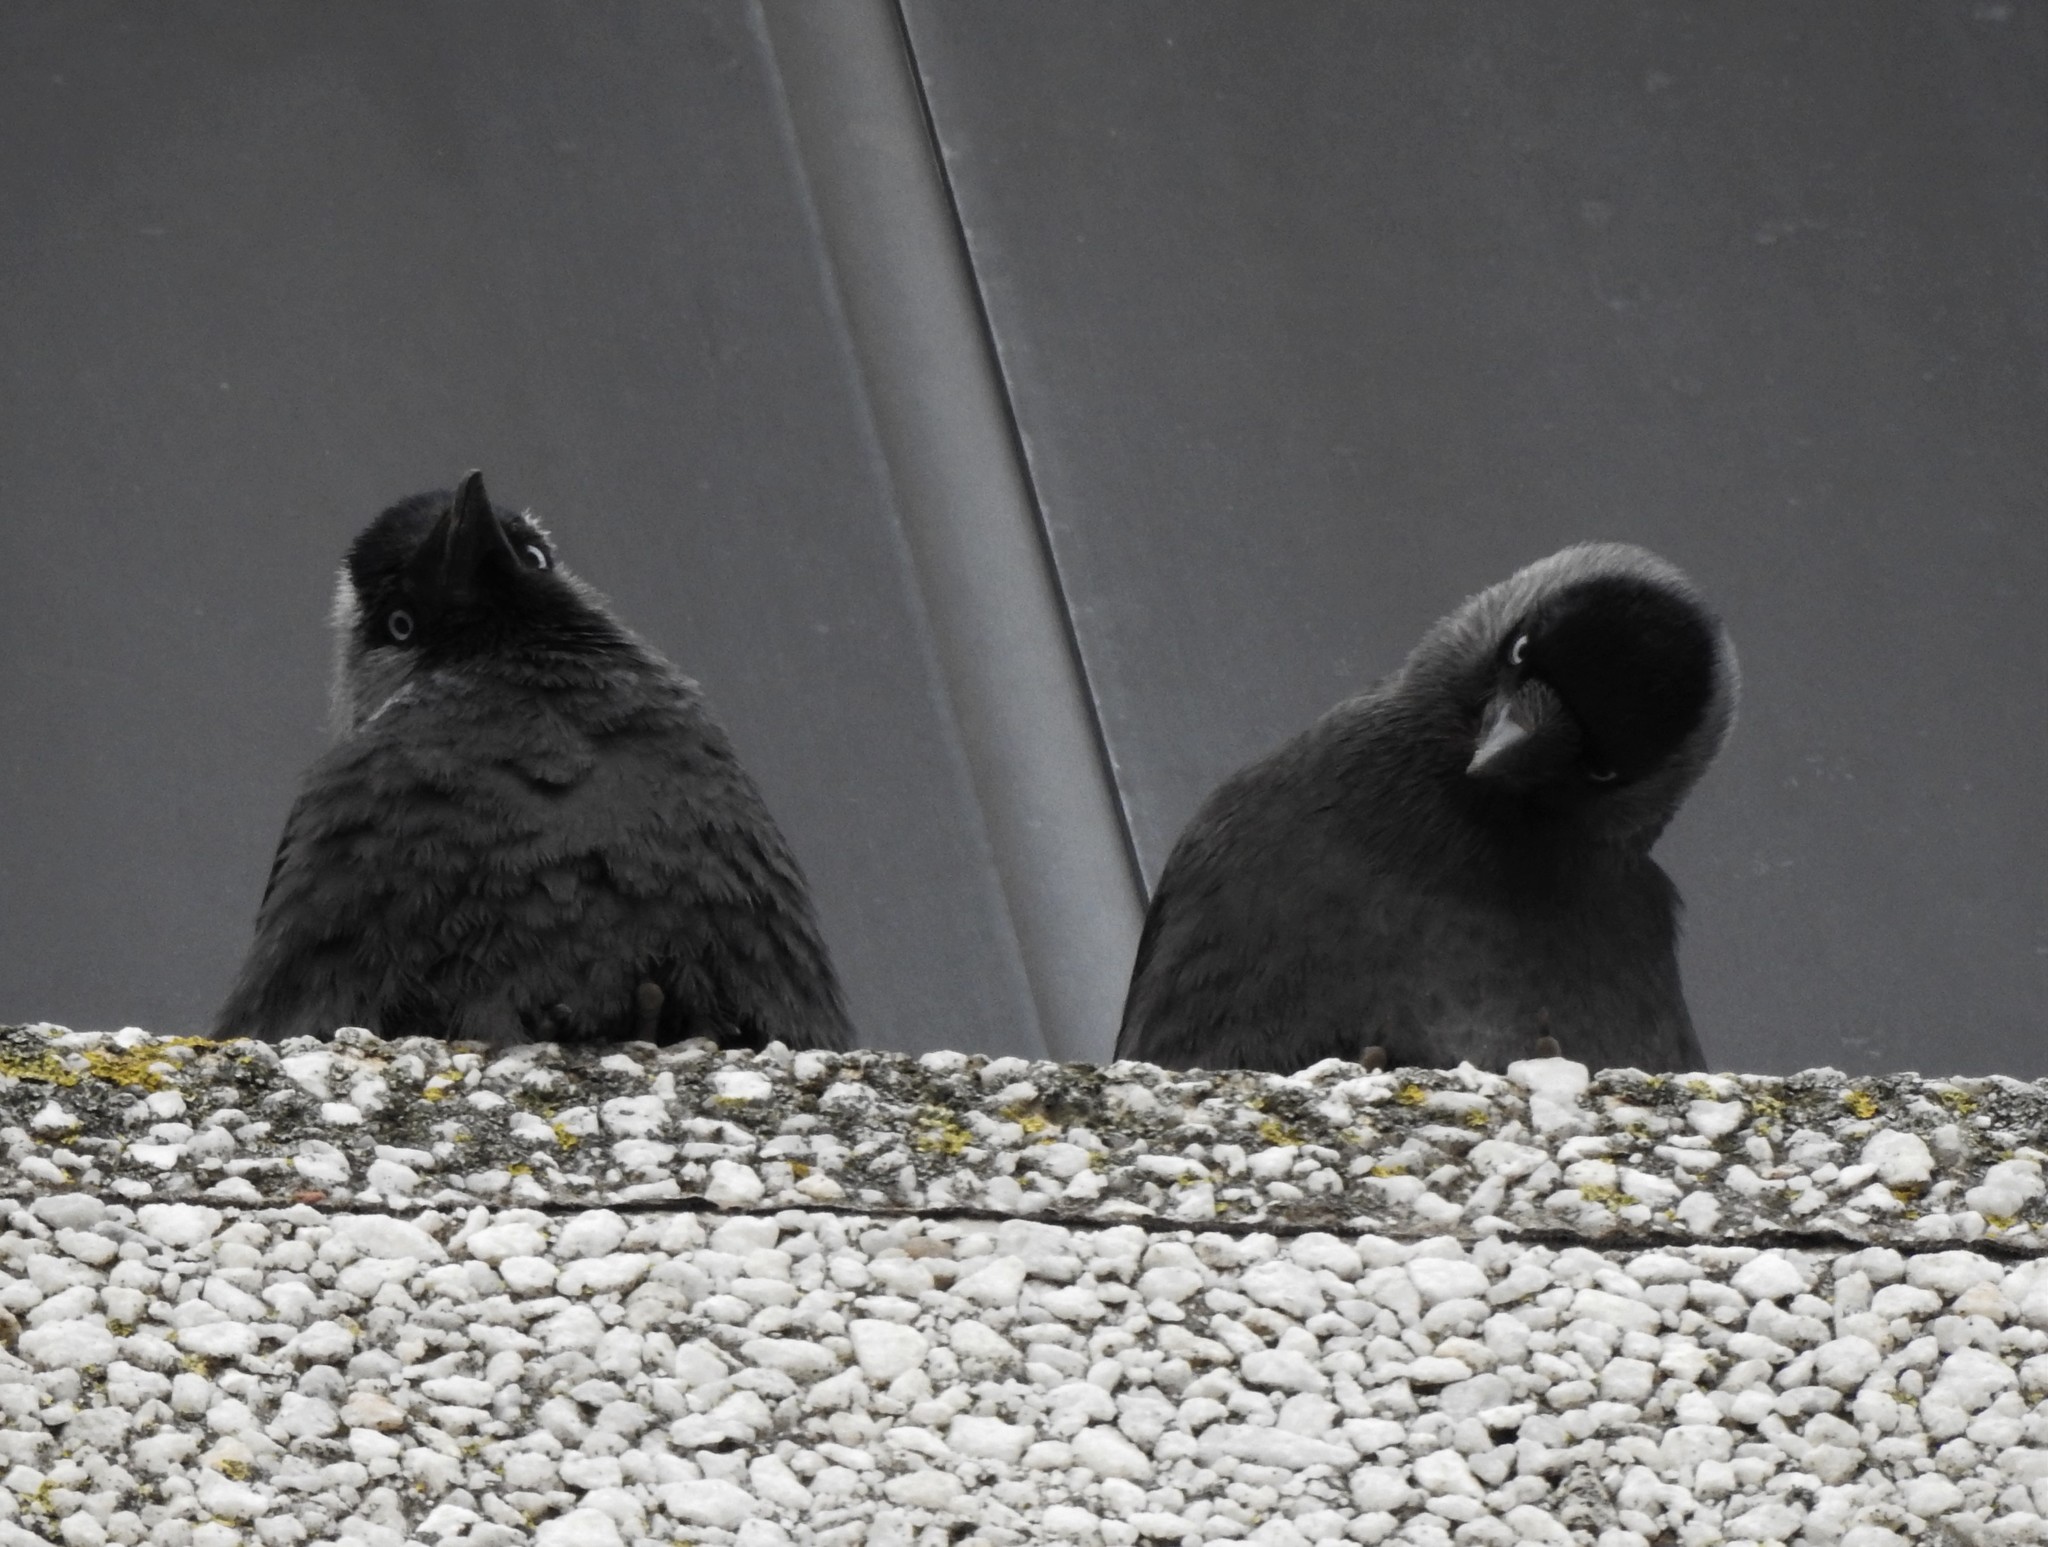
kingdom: Animalia
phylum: Chordata
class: Aves
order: Passeriformes
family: Corvidae
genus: Coloeus
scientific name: Coloeus monedula
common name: Western jackdaw
